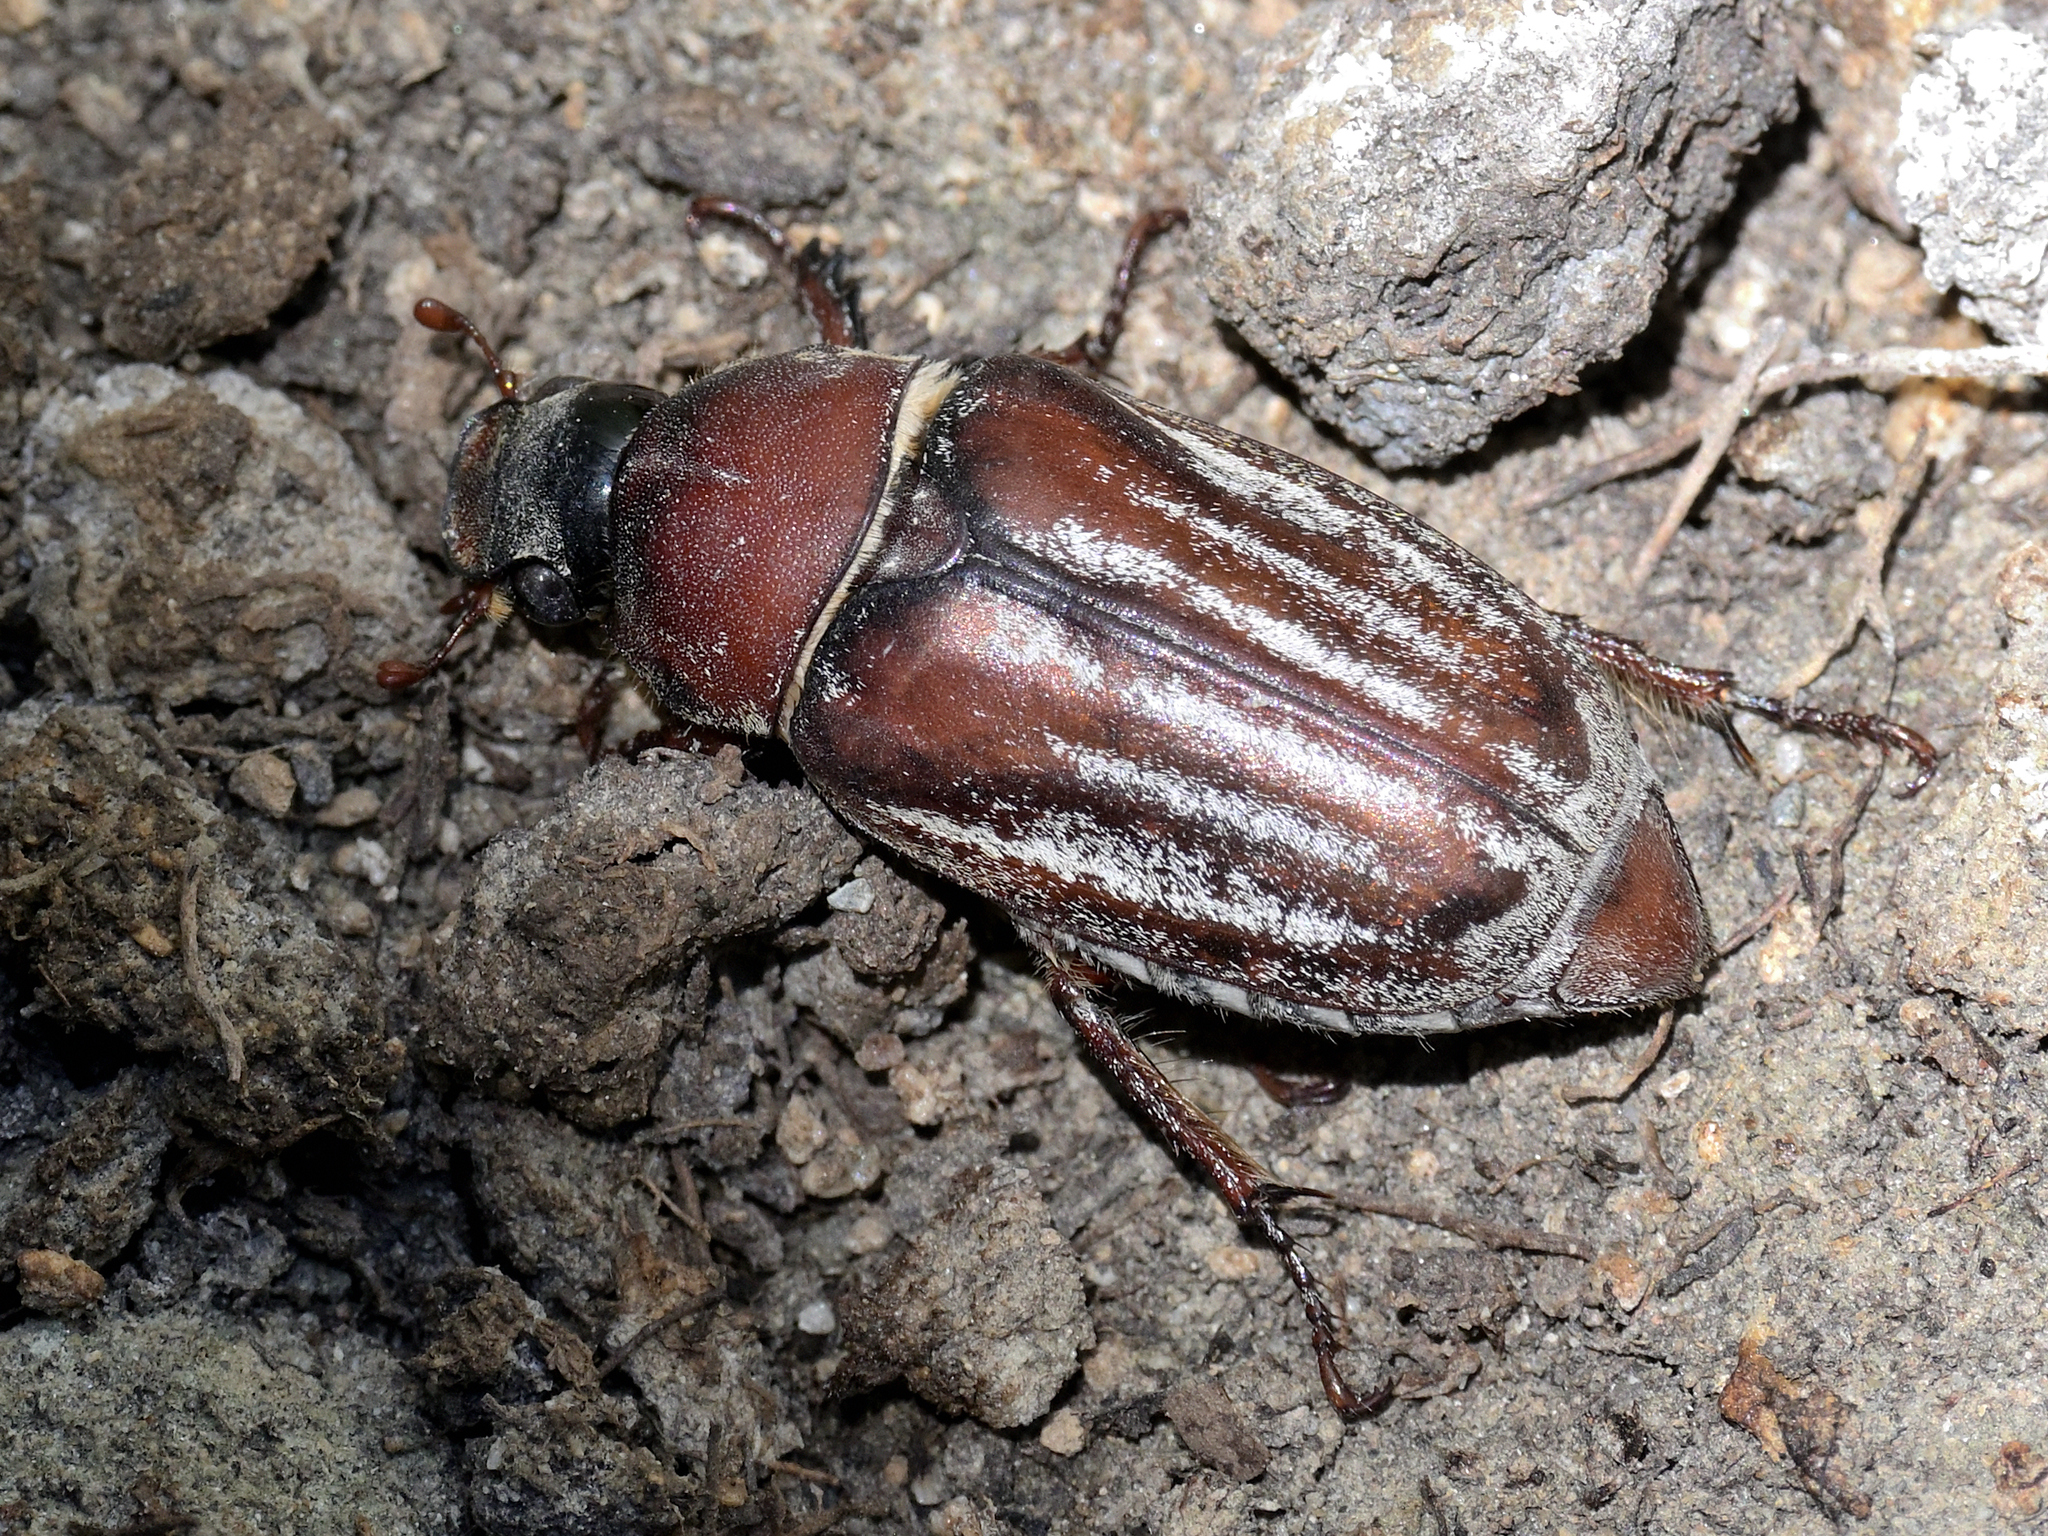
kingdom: Animalia
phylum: Arthropoda
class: Insecta
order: Coleoptera
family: Scarabaeidae
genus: Anoxia
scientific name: Anoxia reisseri
